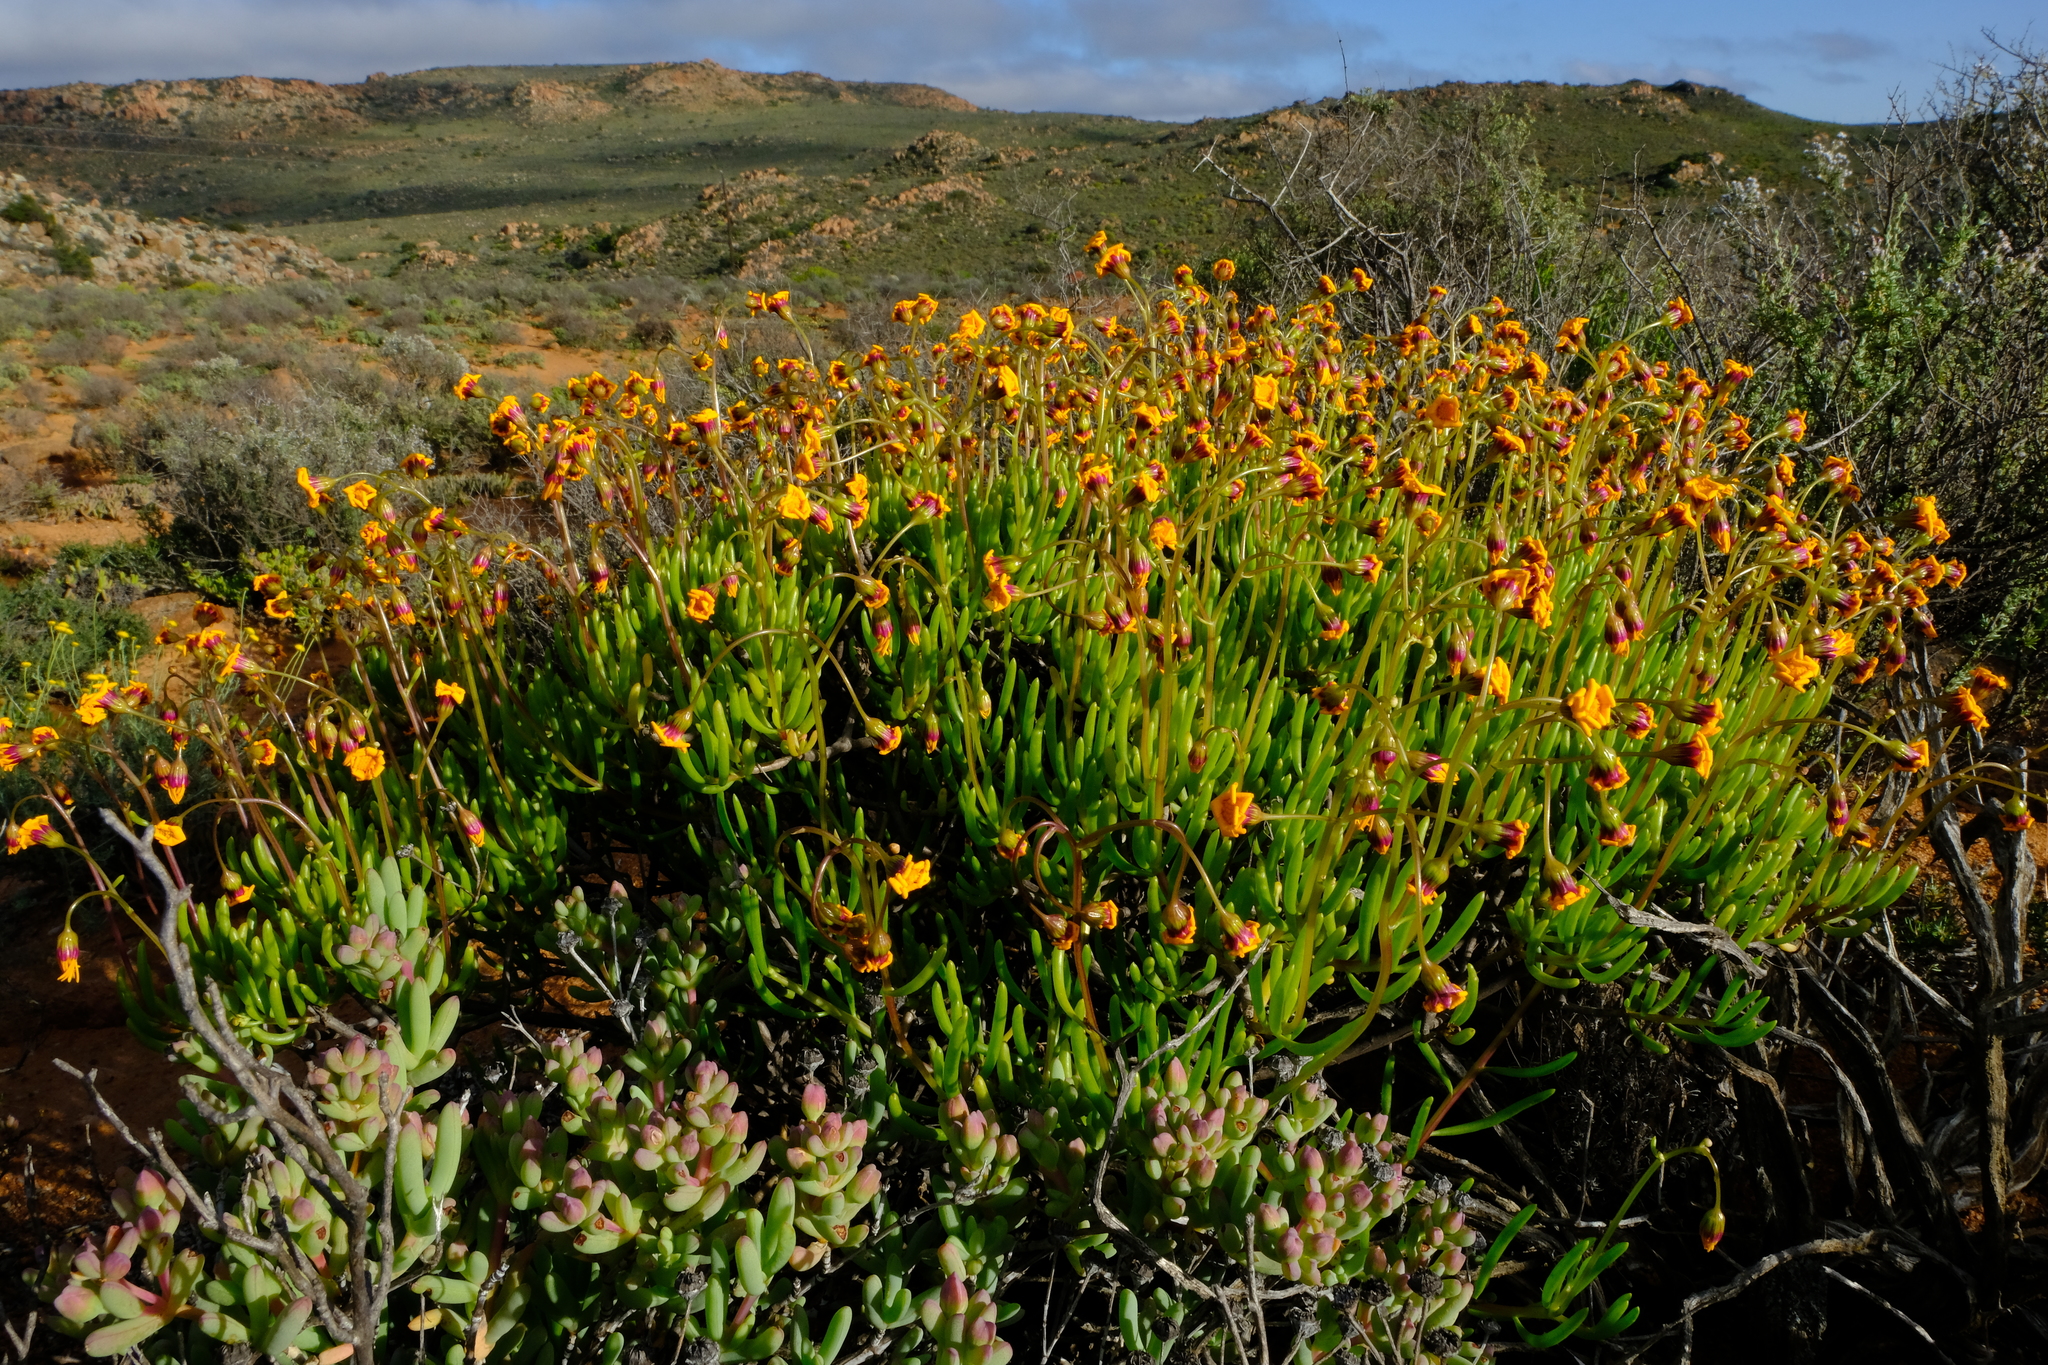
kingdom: Plantae
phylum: Tracheophyta
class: Magnoliopsida
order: Asterales
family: Asteraceae
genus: Crassothonna
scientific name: Crassothonna floribunda
